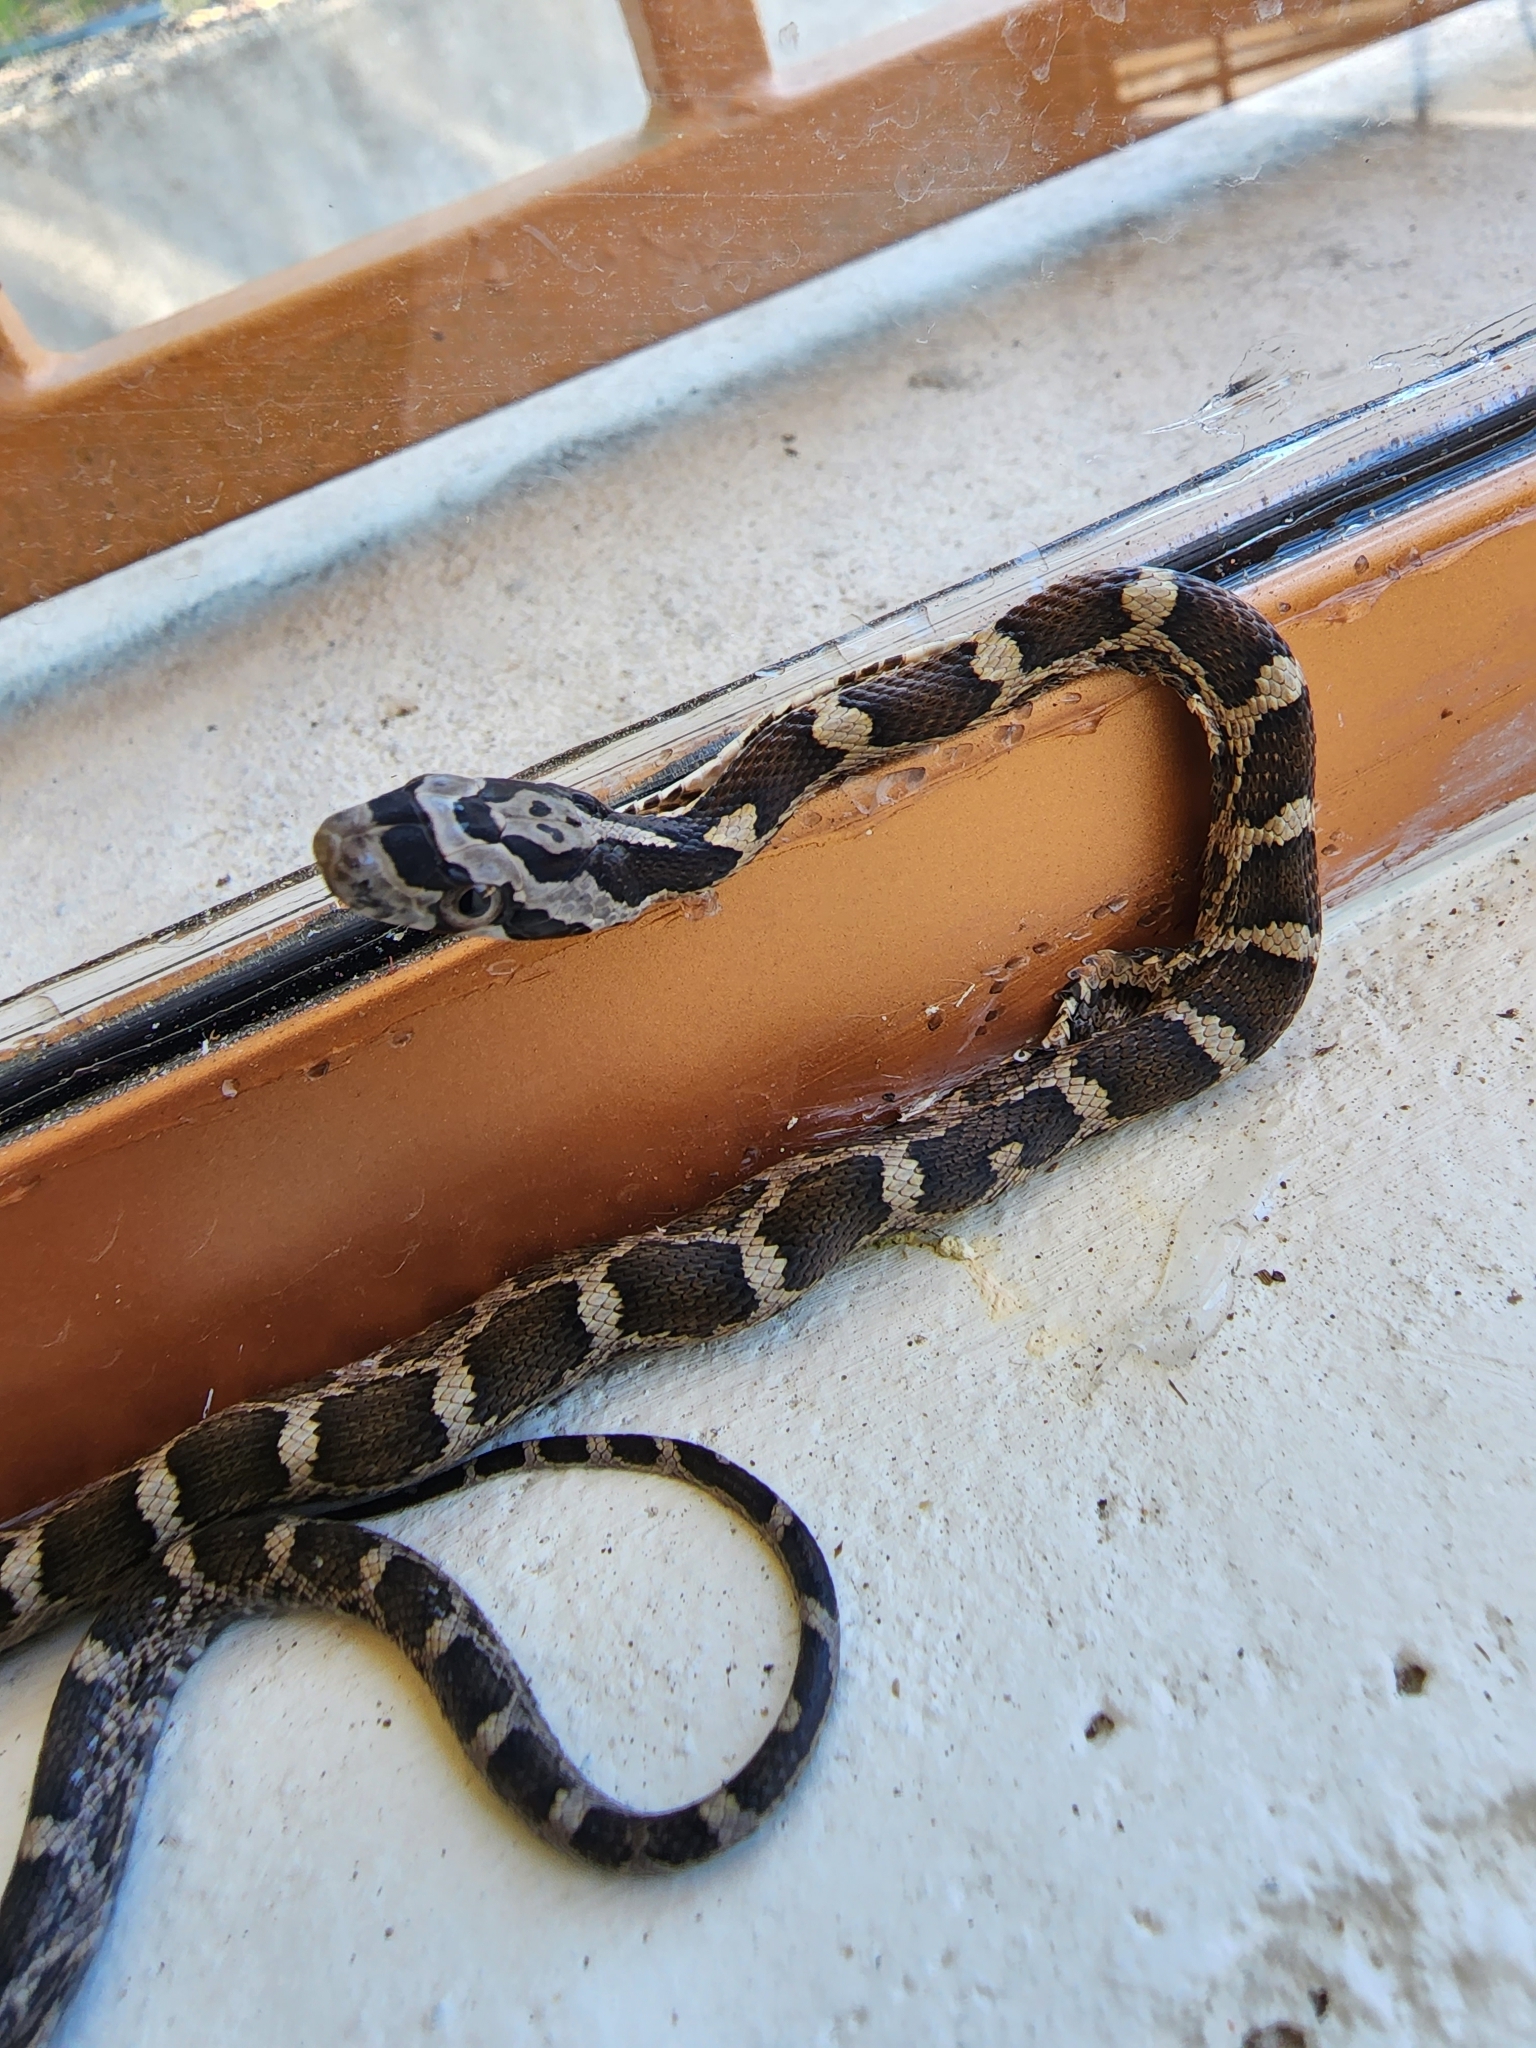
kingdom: Animalia
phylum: Chordata
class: Squamata
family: Colubridae
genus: Pantherophis
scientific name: Pantherophis obsoletus
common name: Black rat snake
